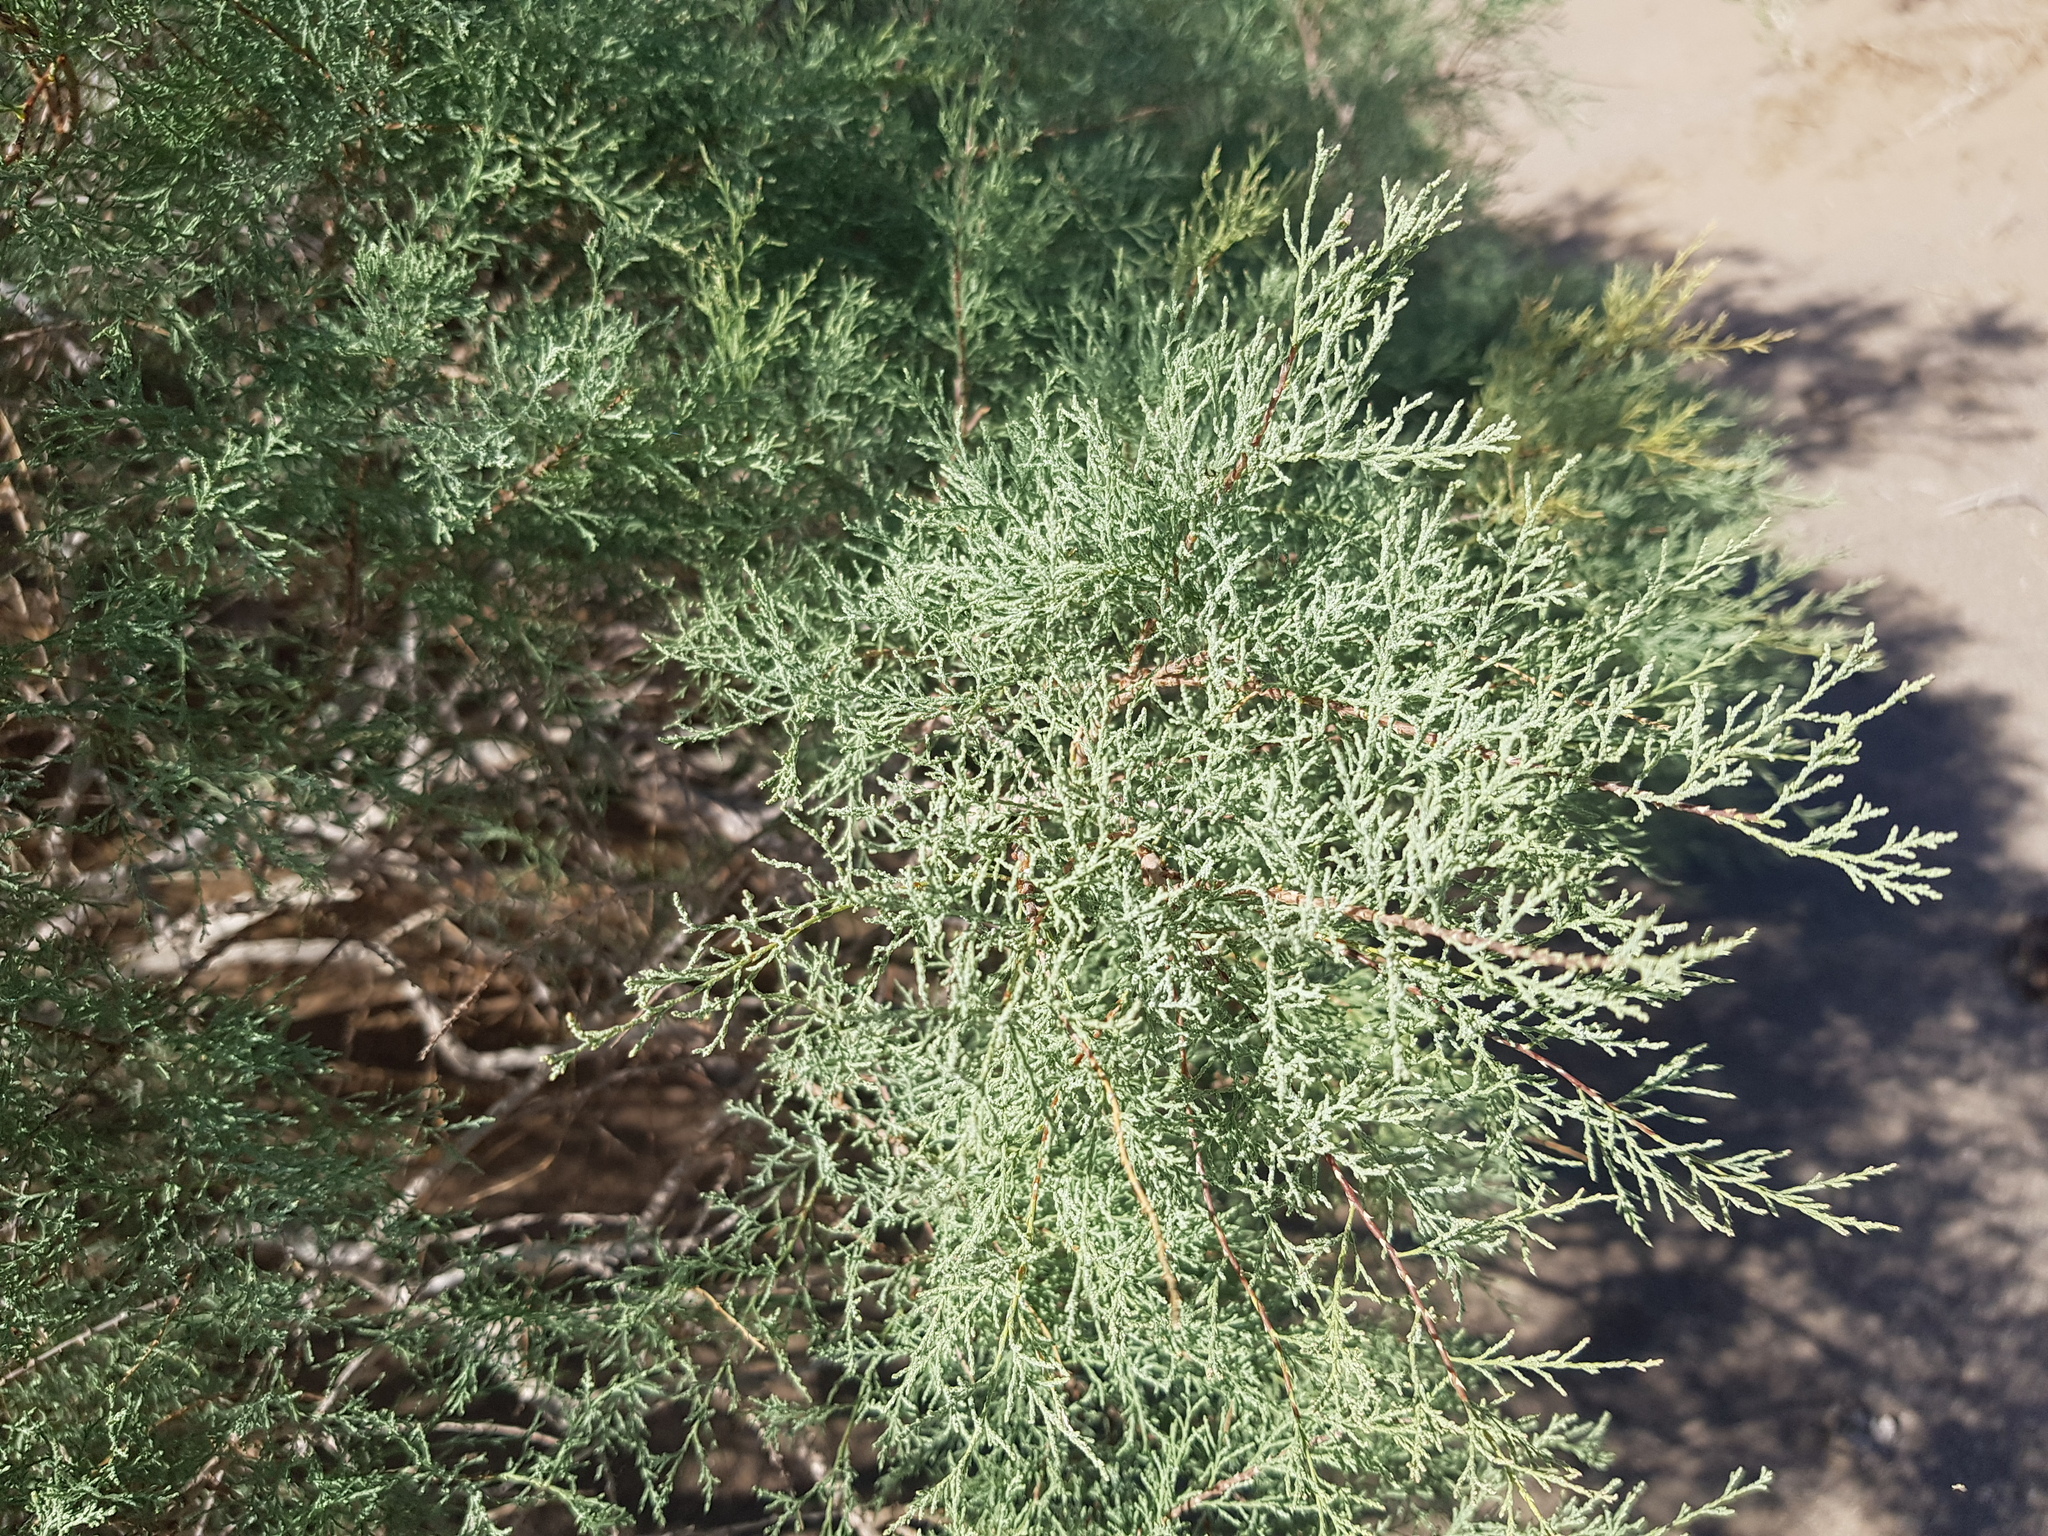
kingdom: Plantae
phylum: Tracheophyta
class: Magnoliopsida
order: Caryophyllales
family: Tamaricaceae
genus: Tamarix
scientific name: Tamarix ramosissima
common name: Pink tamarisk
